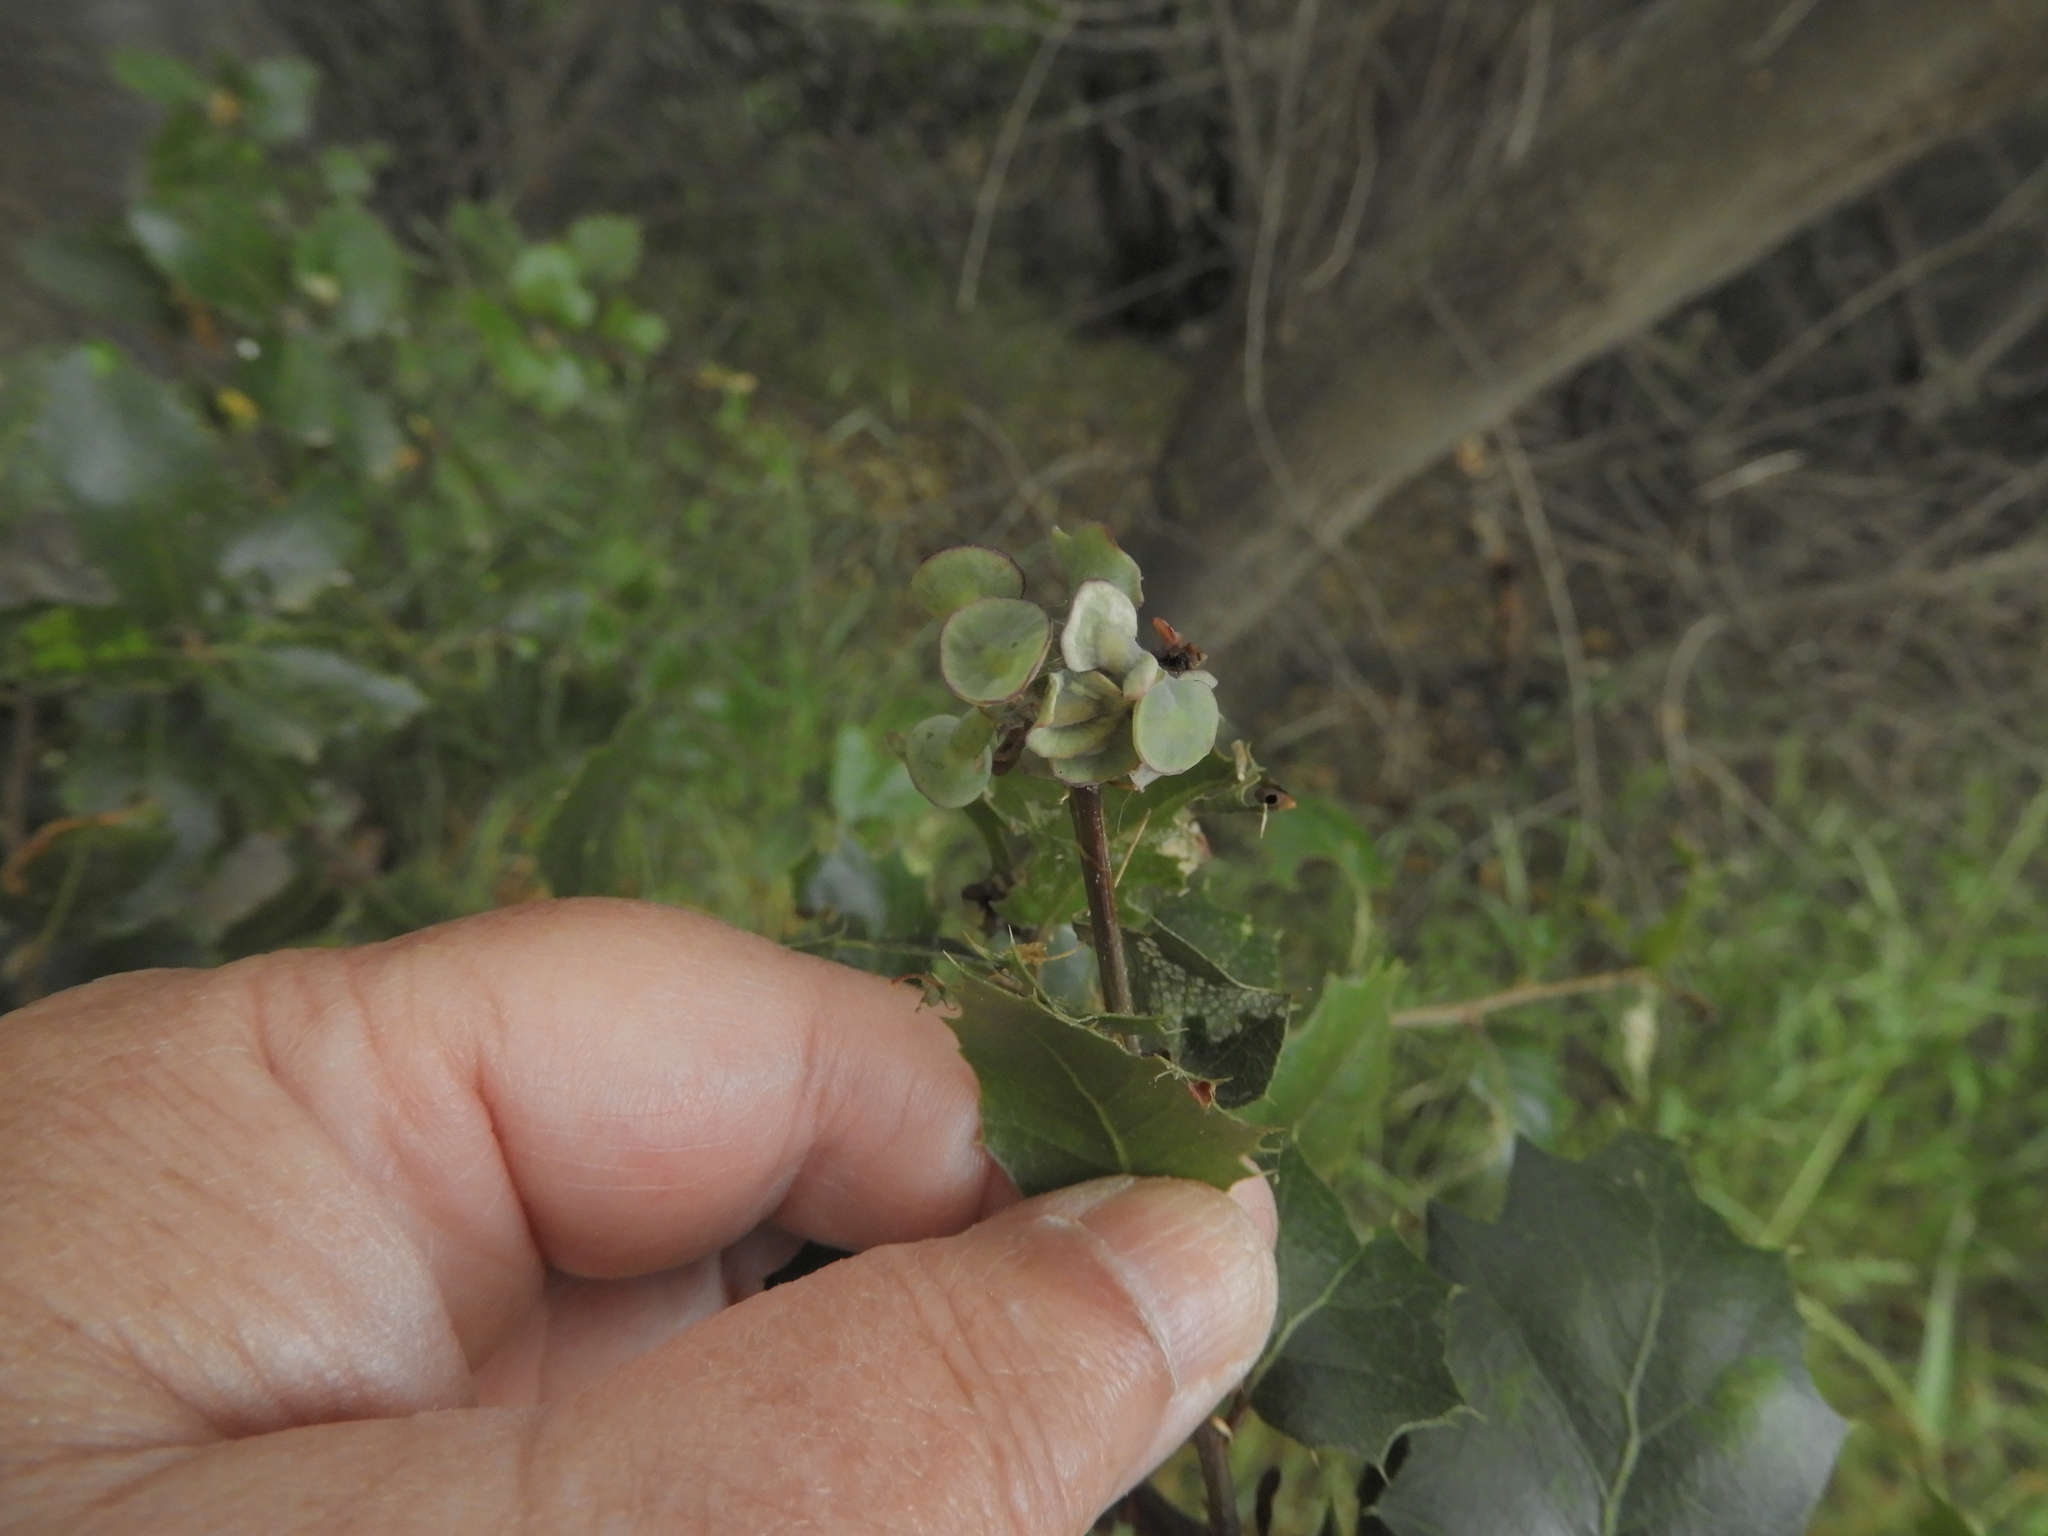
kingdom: Animalia
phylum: Arthropoda
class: Insecta
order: Hymenoptera
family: Cynipidae
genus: Amphibolips
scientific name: Amphibolips quercuspomiformis
